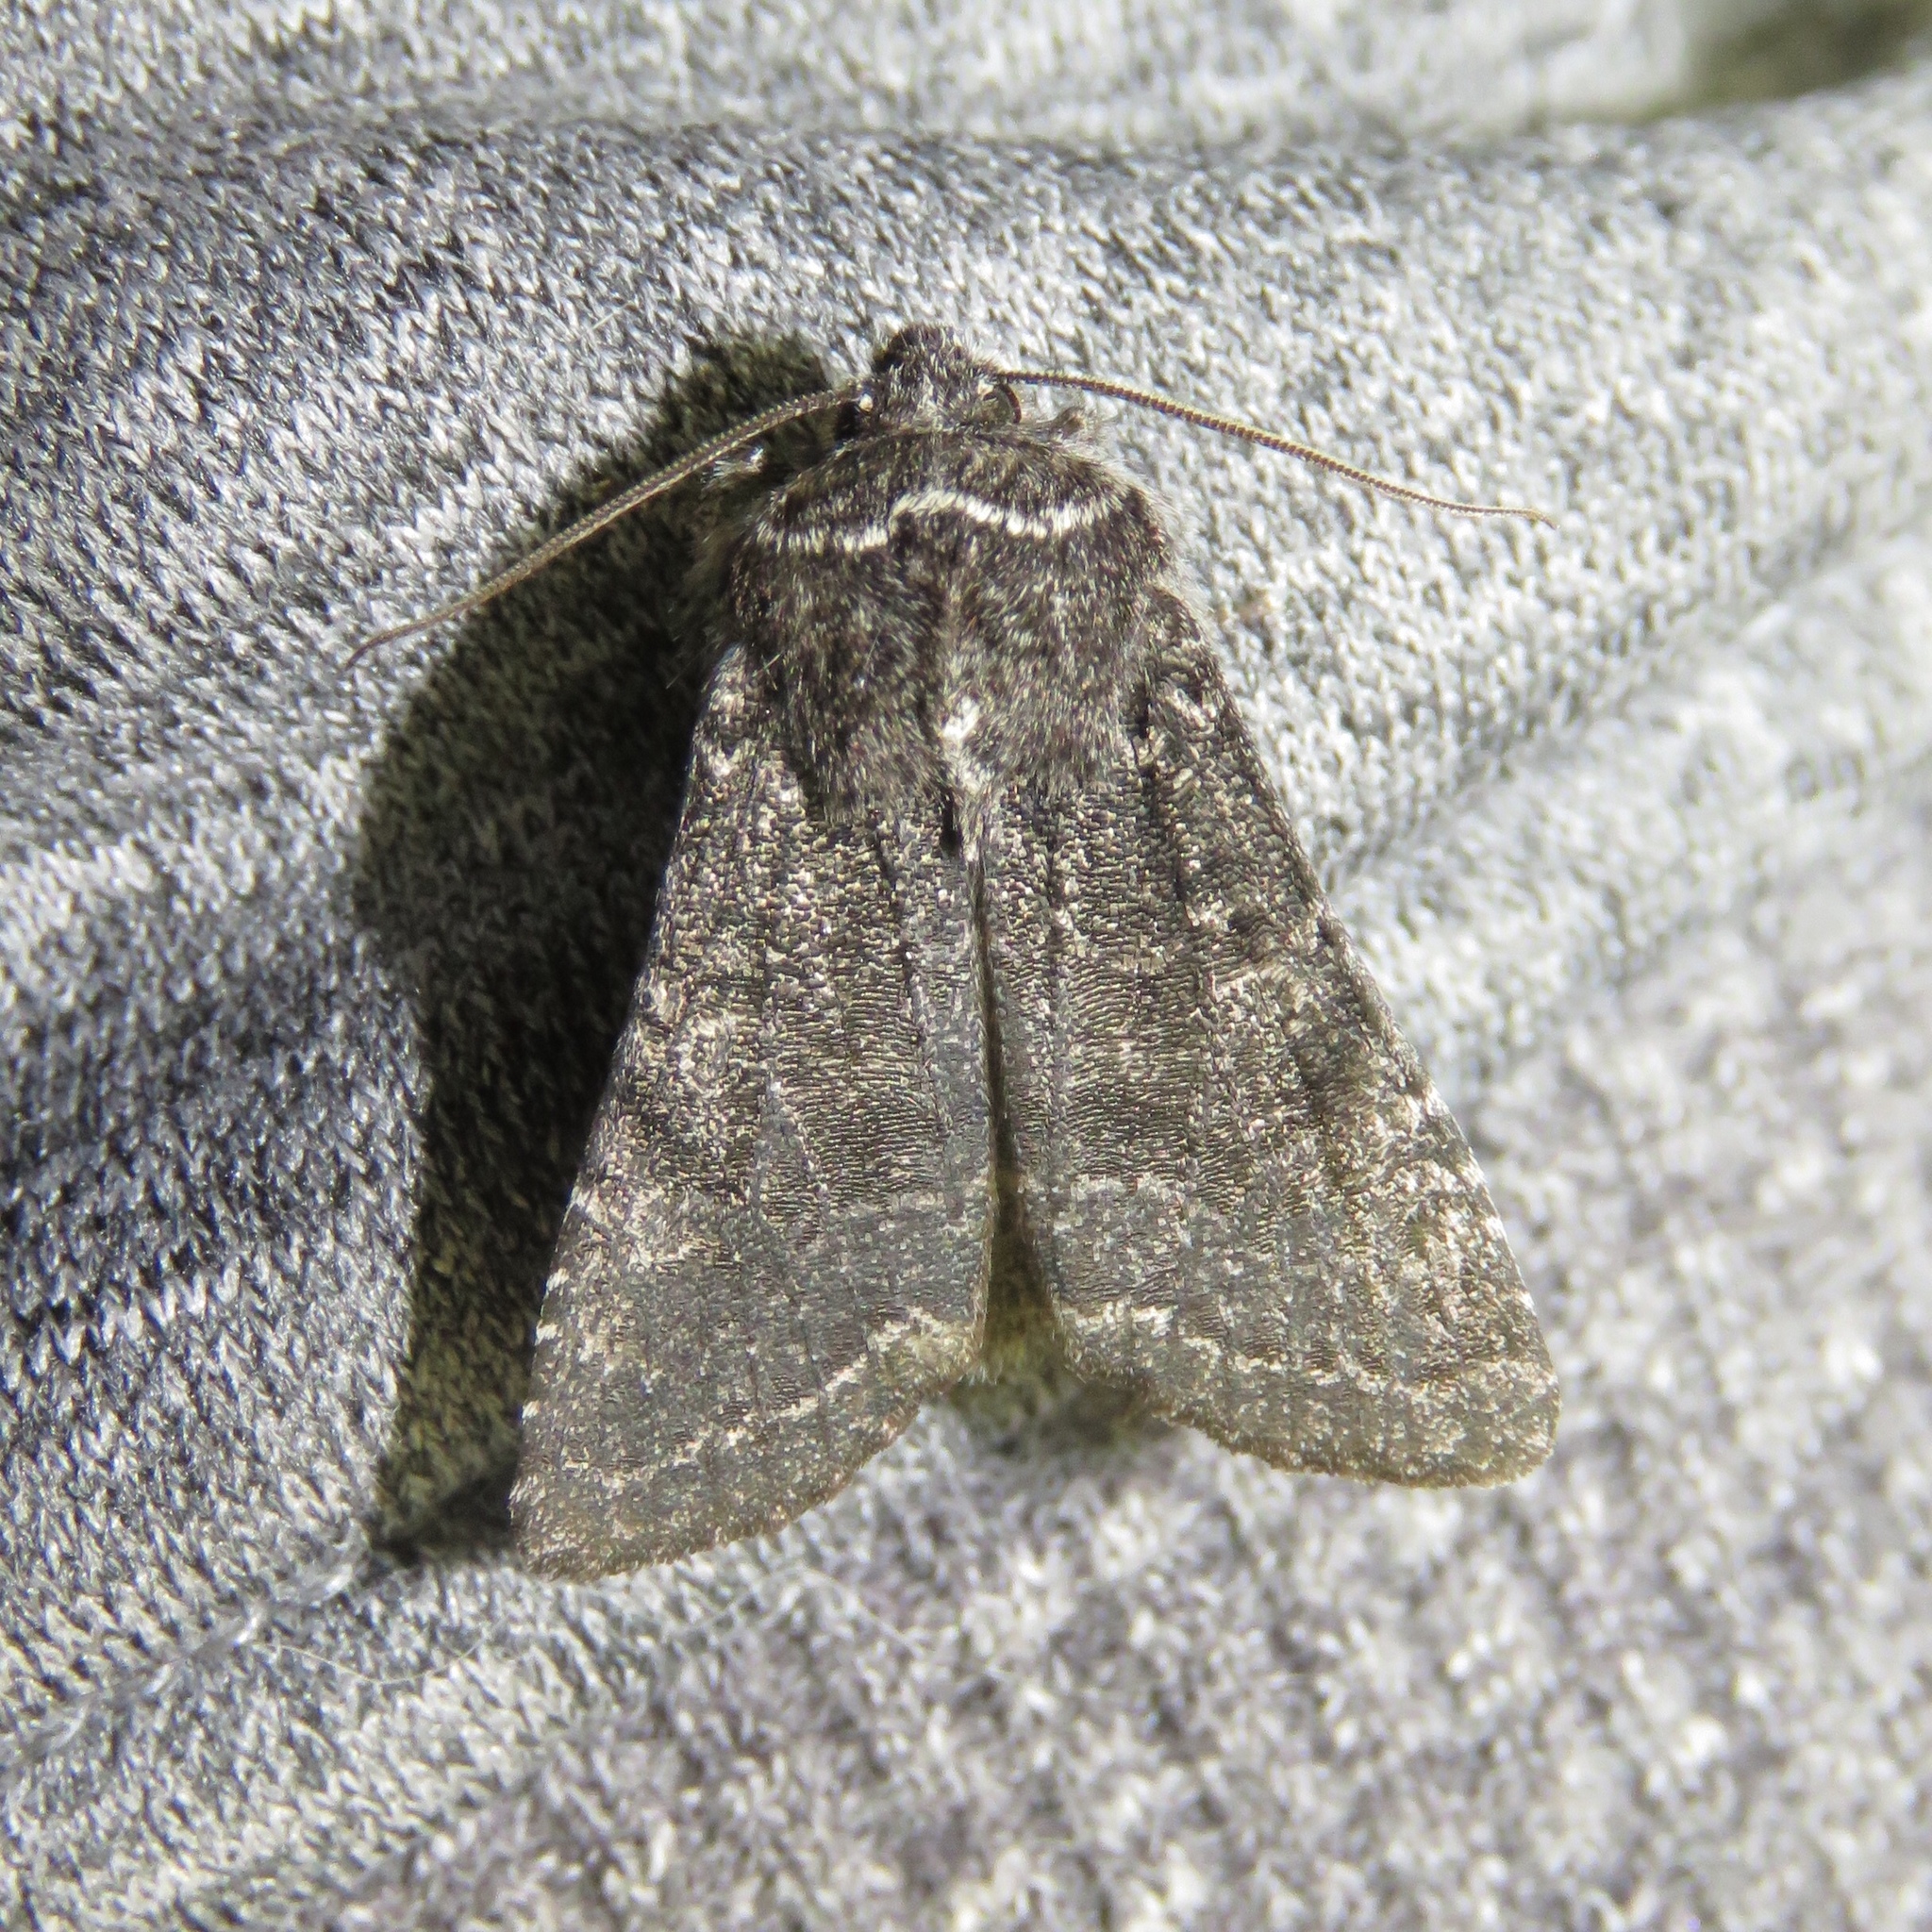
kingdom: Animalia
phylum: Arthropoda
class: Insecta
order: Lepidoptera
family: Noctuidae
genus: Egira
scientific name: Egira dolosa
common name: Lined black aspen cat.
